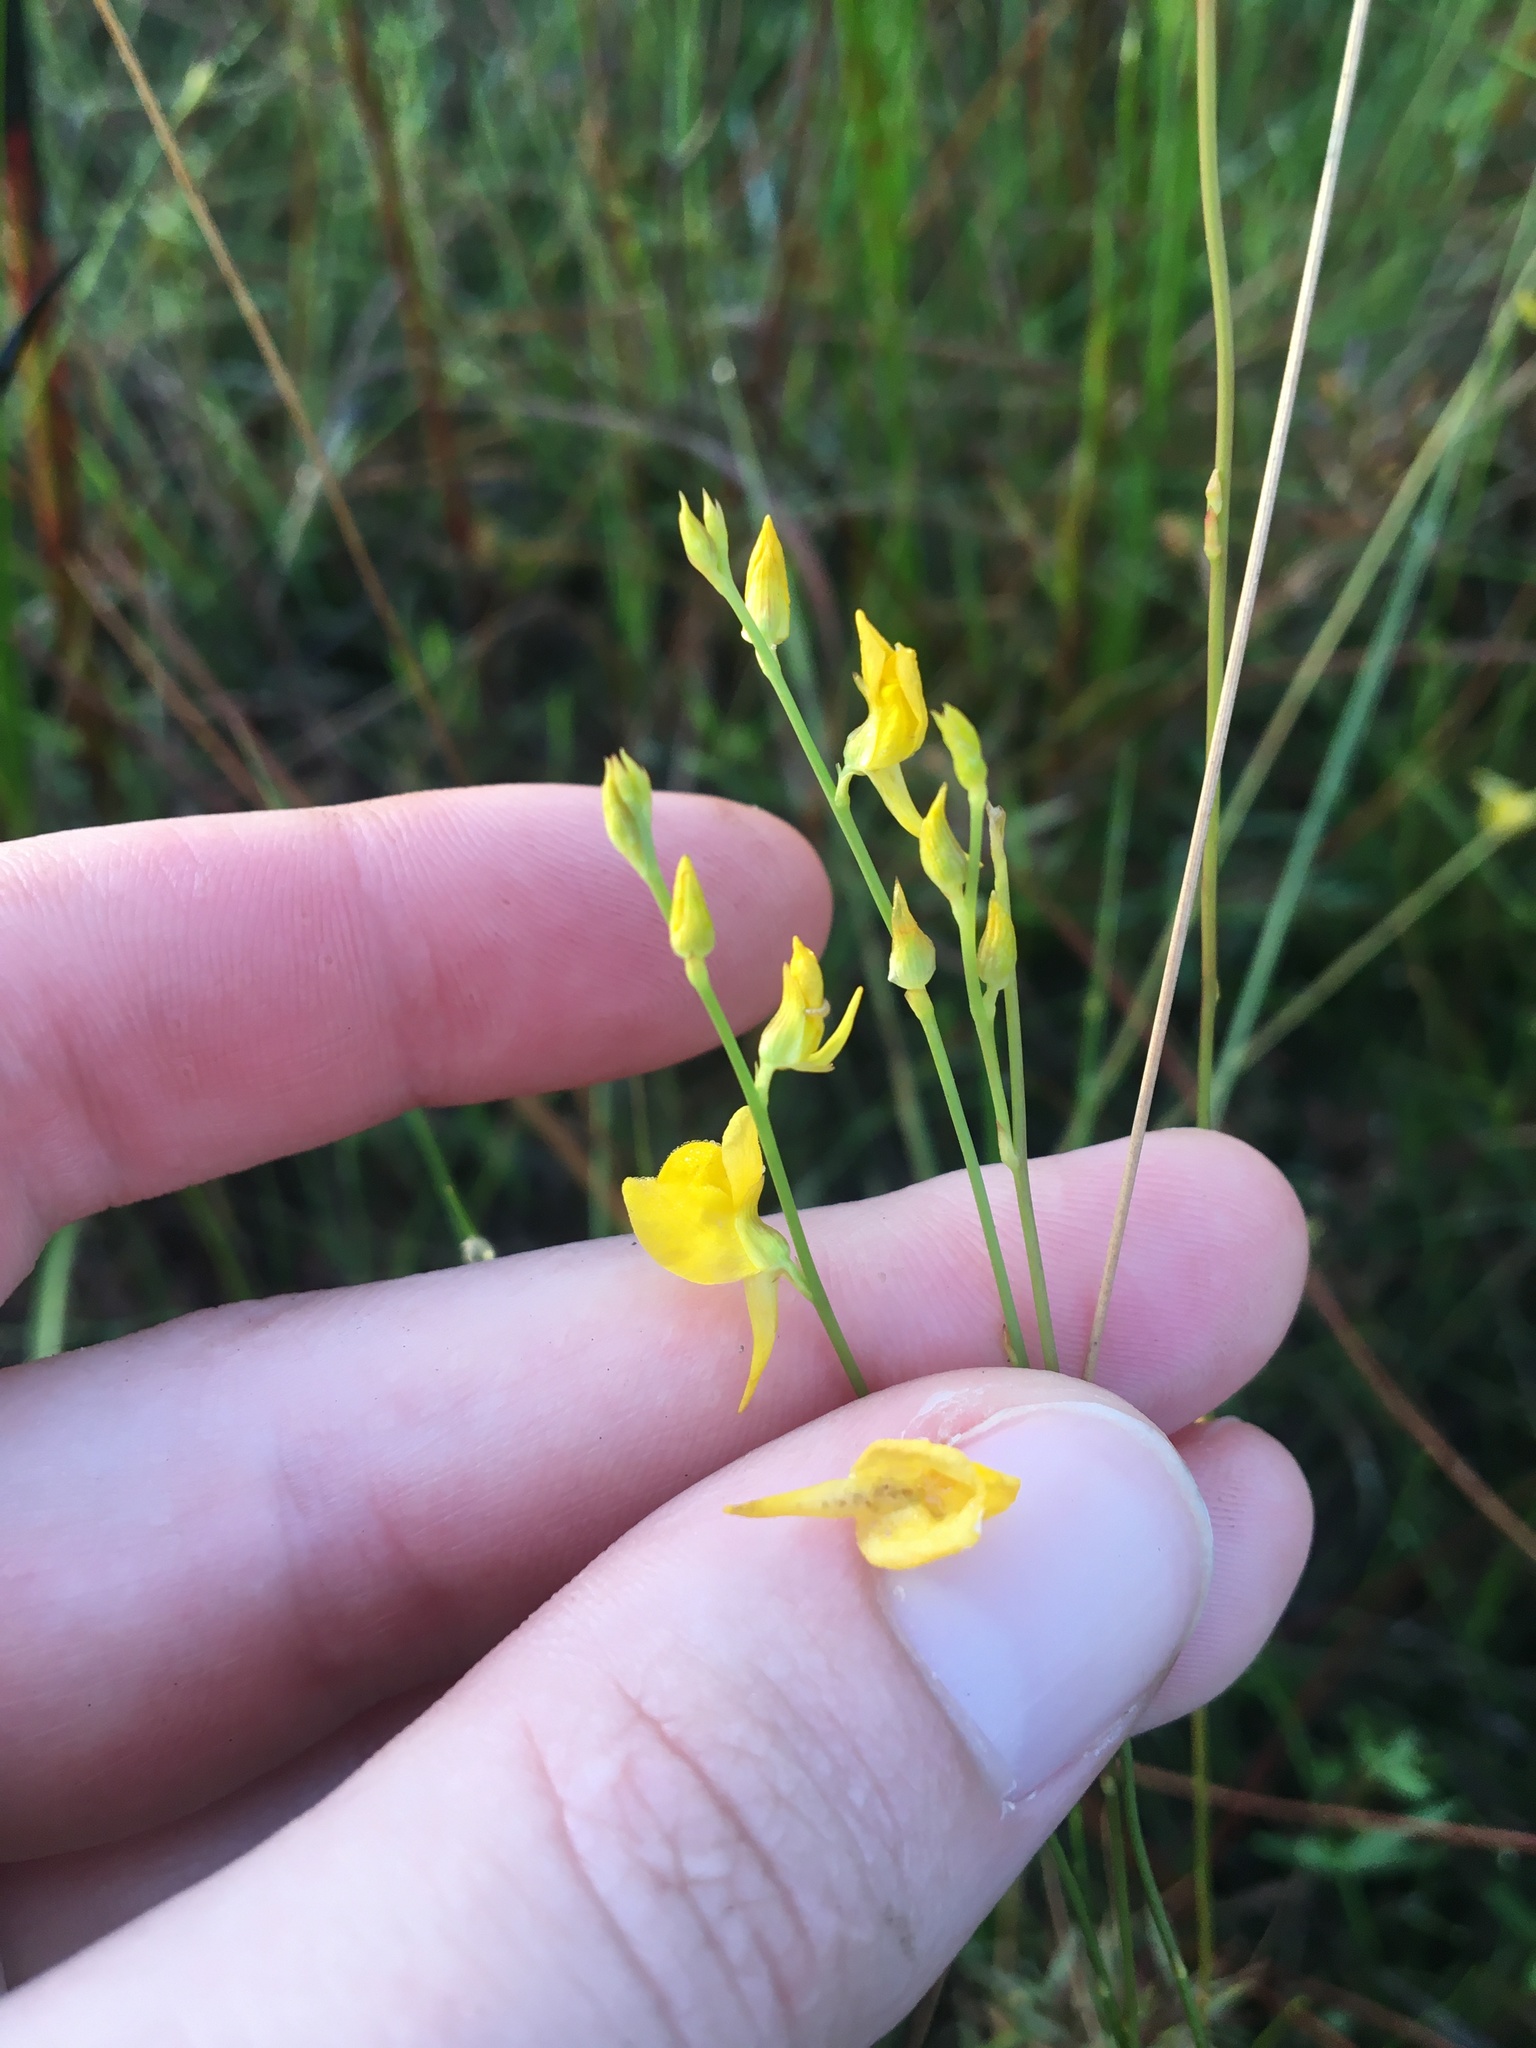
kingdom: Plantae
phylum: Tracheophyta
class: Magnoliopsida
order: Lamiales
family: Lentibulariaceae
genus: Utricularia
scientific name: Utricularia juncea
